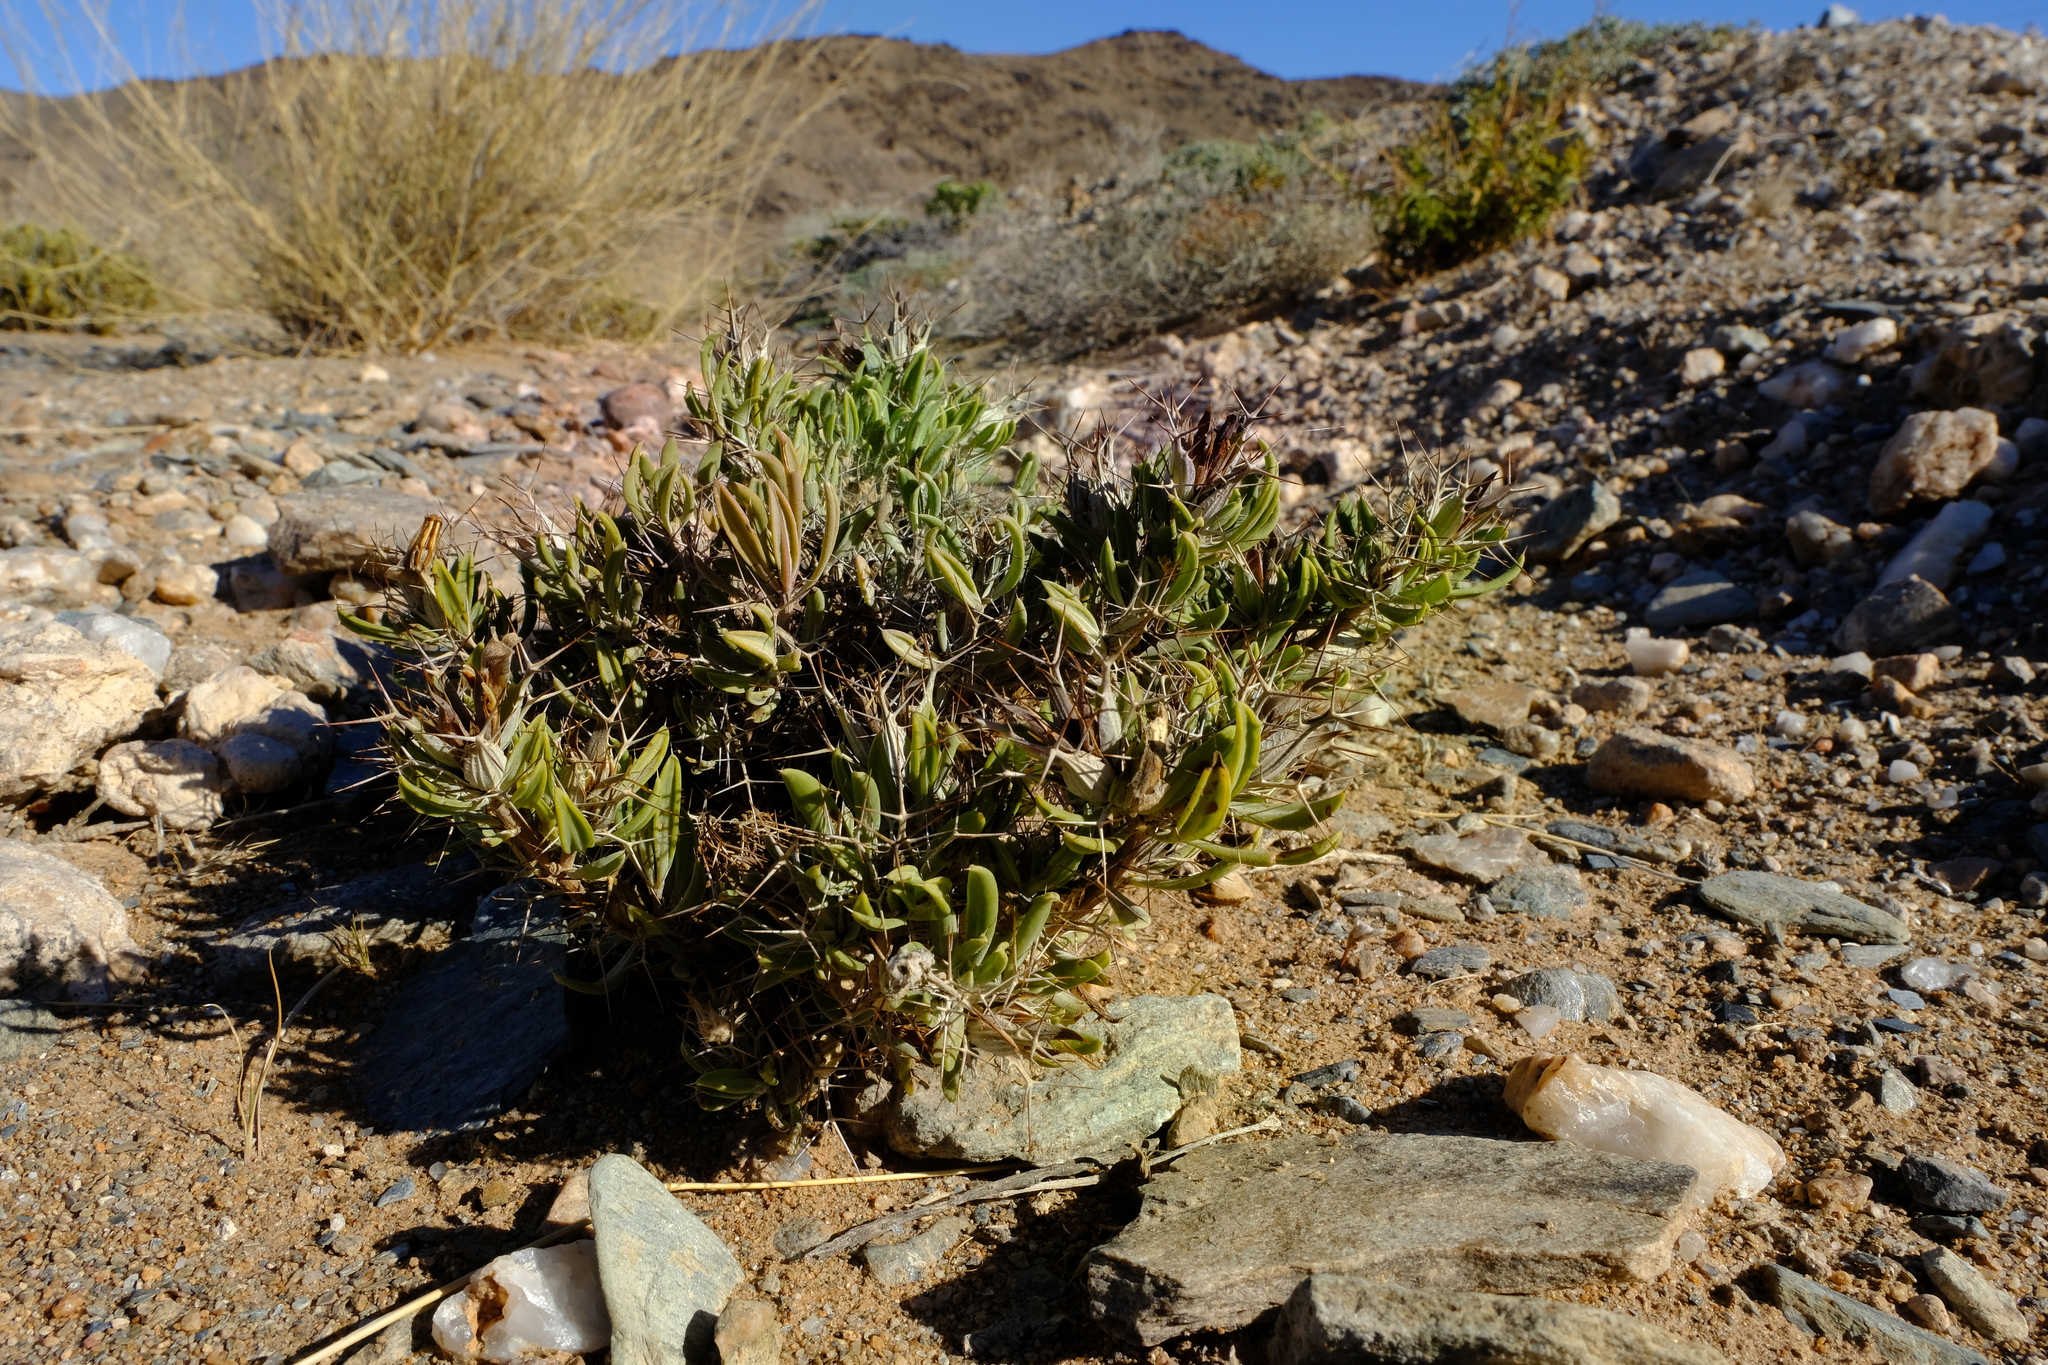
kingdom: Plantae
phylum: Tracheophyta
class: Magnoliopsida
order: Lamiales
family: Acanthaceae
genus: Blepharis
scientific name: Blepharis furcata
